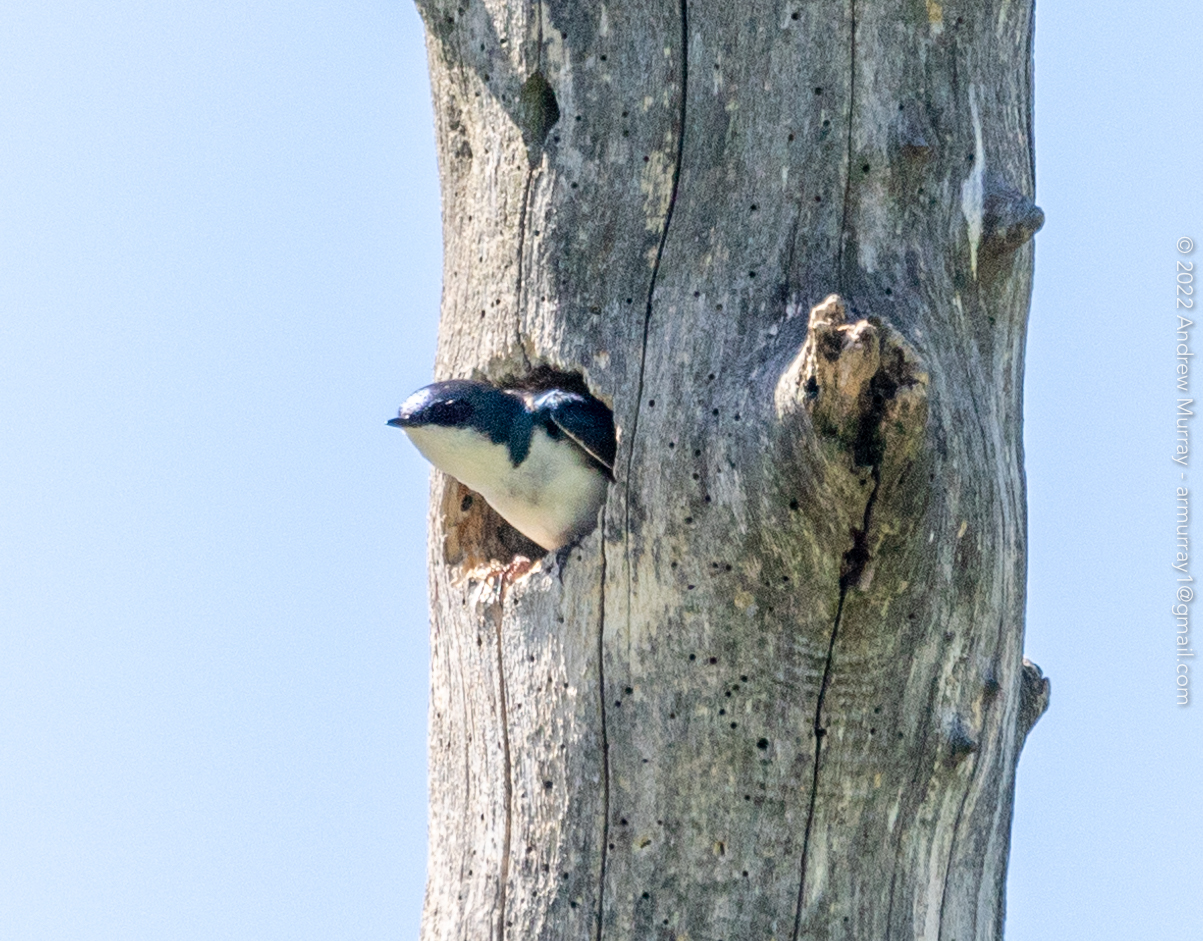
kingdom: Animalia
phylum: Chordata
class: Aves
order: Passeriformes
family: Hirundinidae
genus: Tachycineta
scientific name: Tachycineta bicolor
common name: Tree swallow
